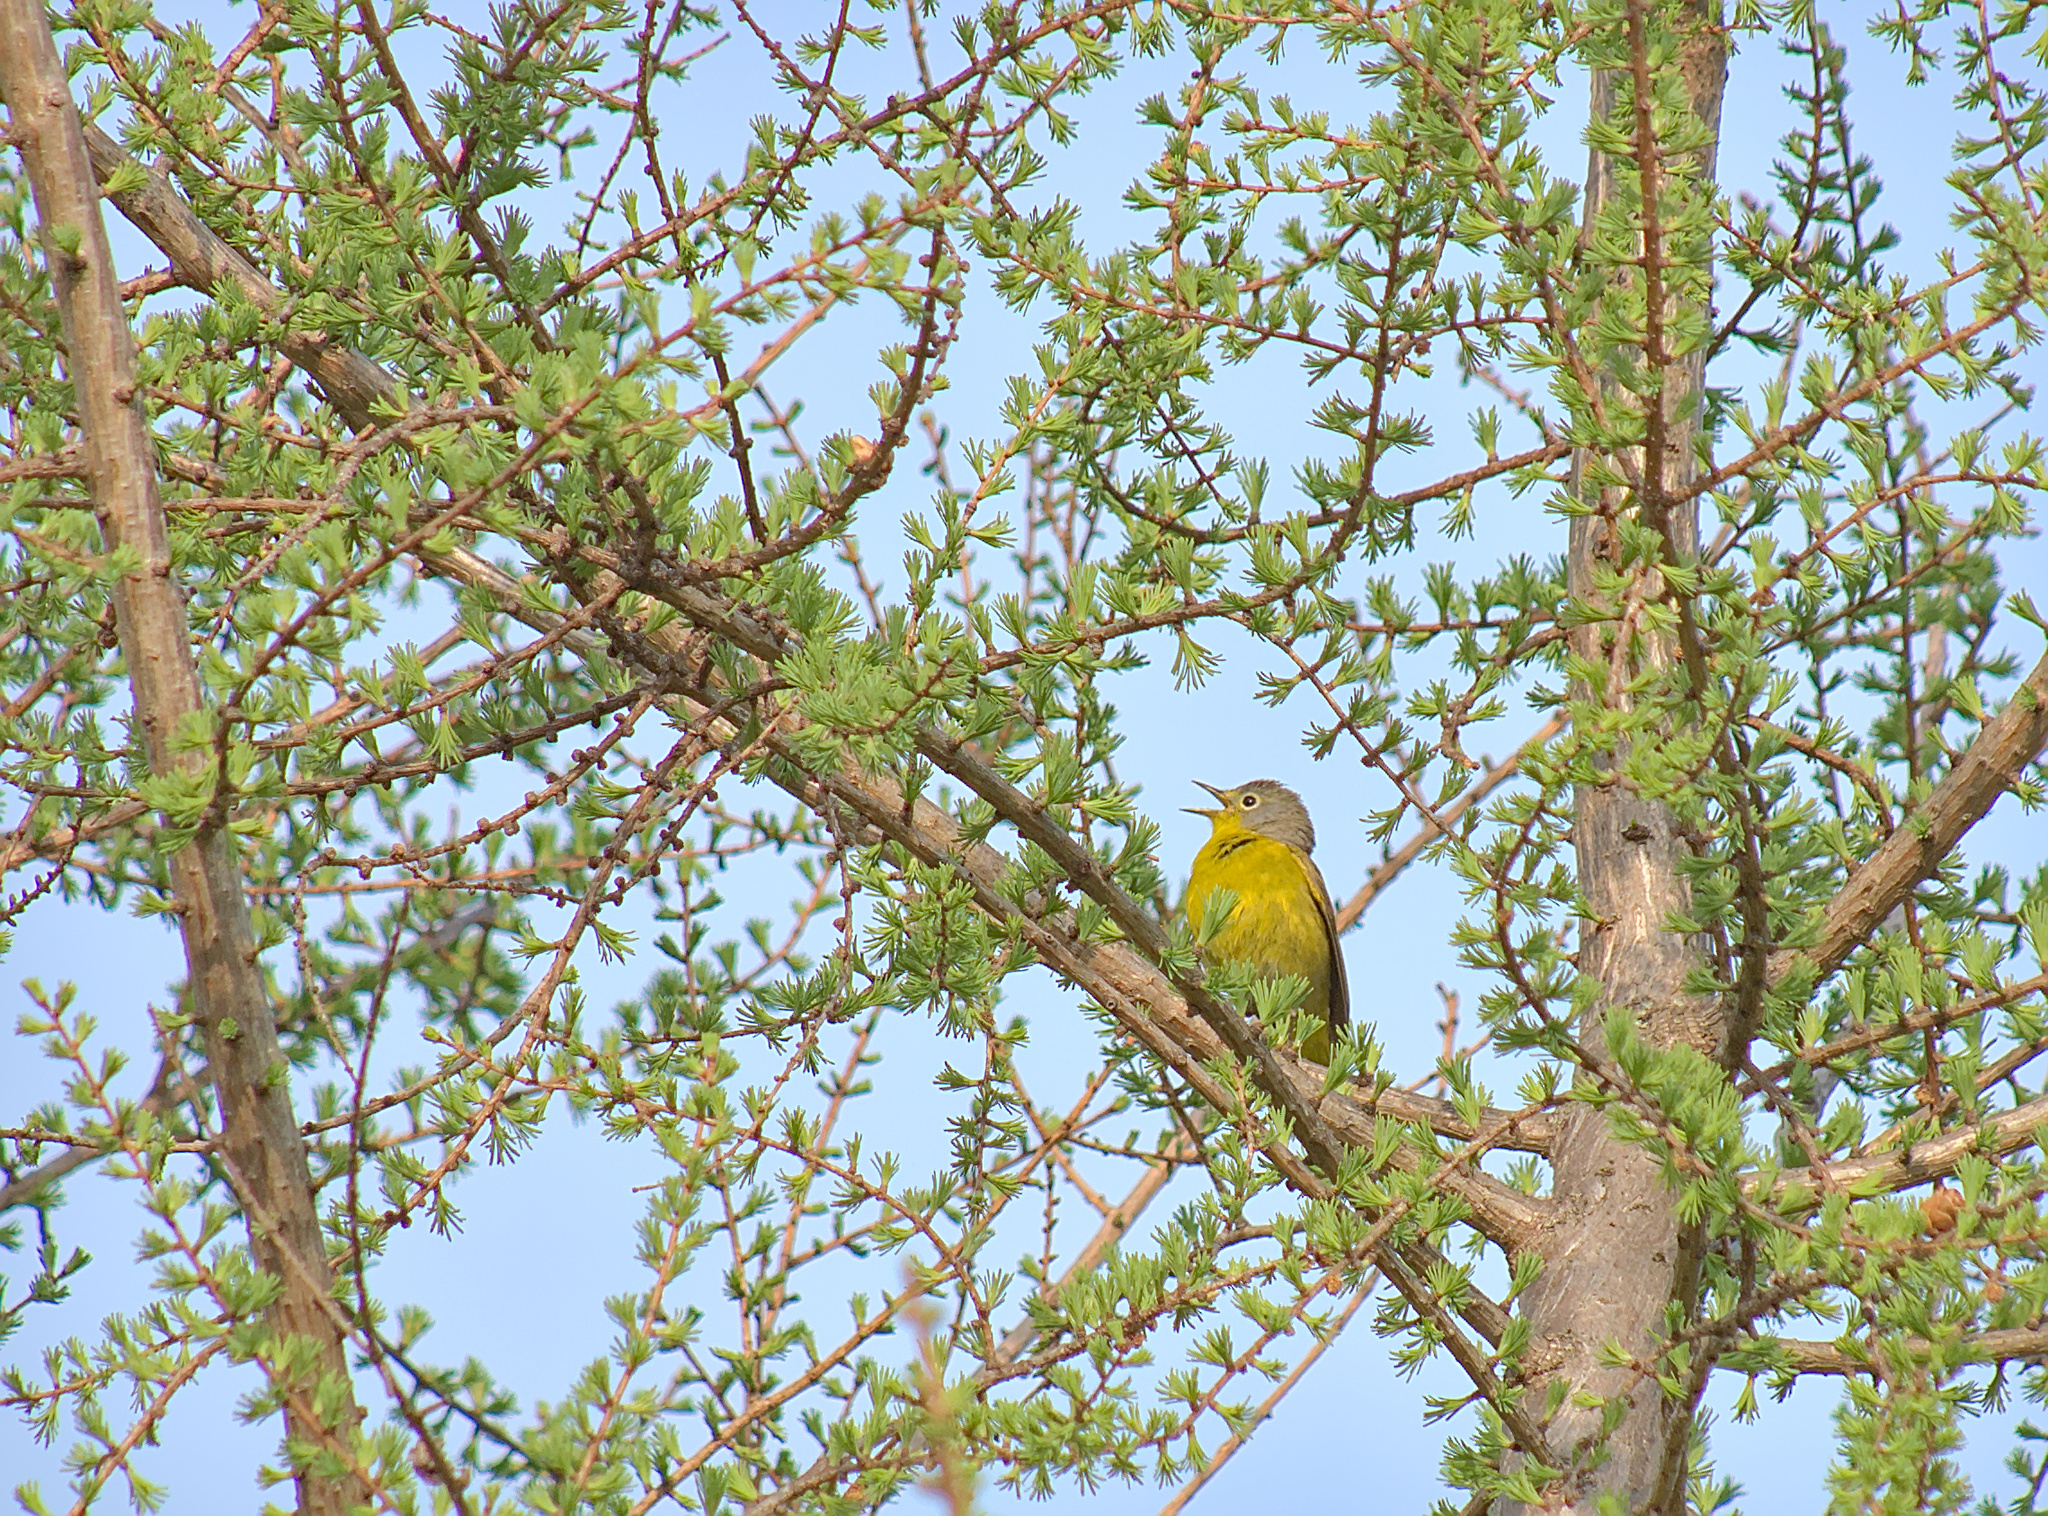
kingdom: Animalia
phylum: Chordata
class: Aves
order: Passeriformes
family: Parulidae
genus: Leiothlypis
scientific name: Leiothlypis ruficapilla
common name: Nashville warbler
